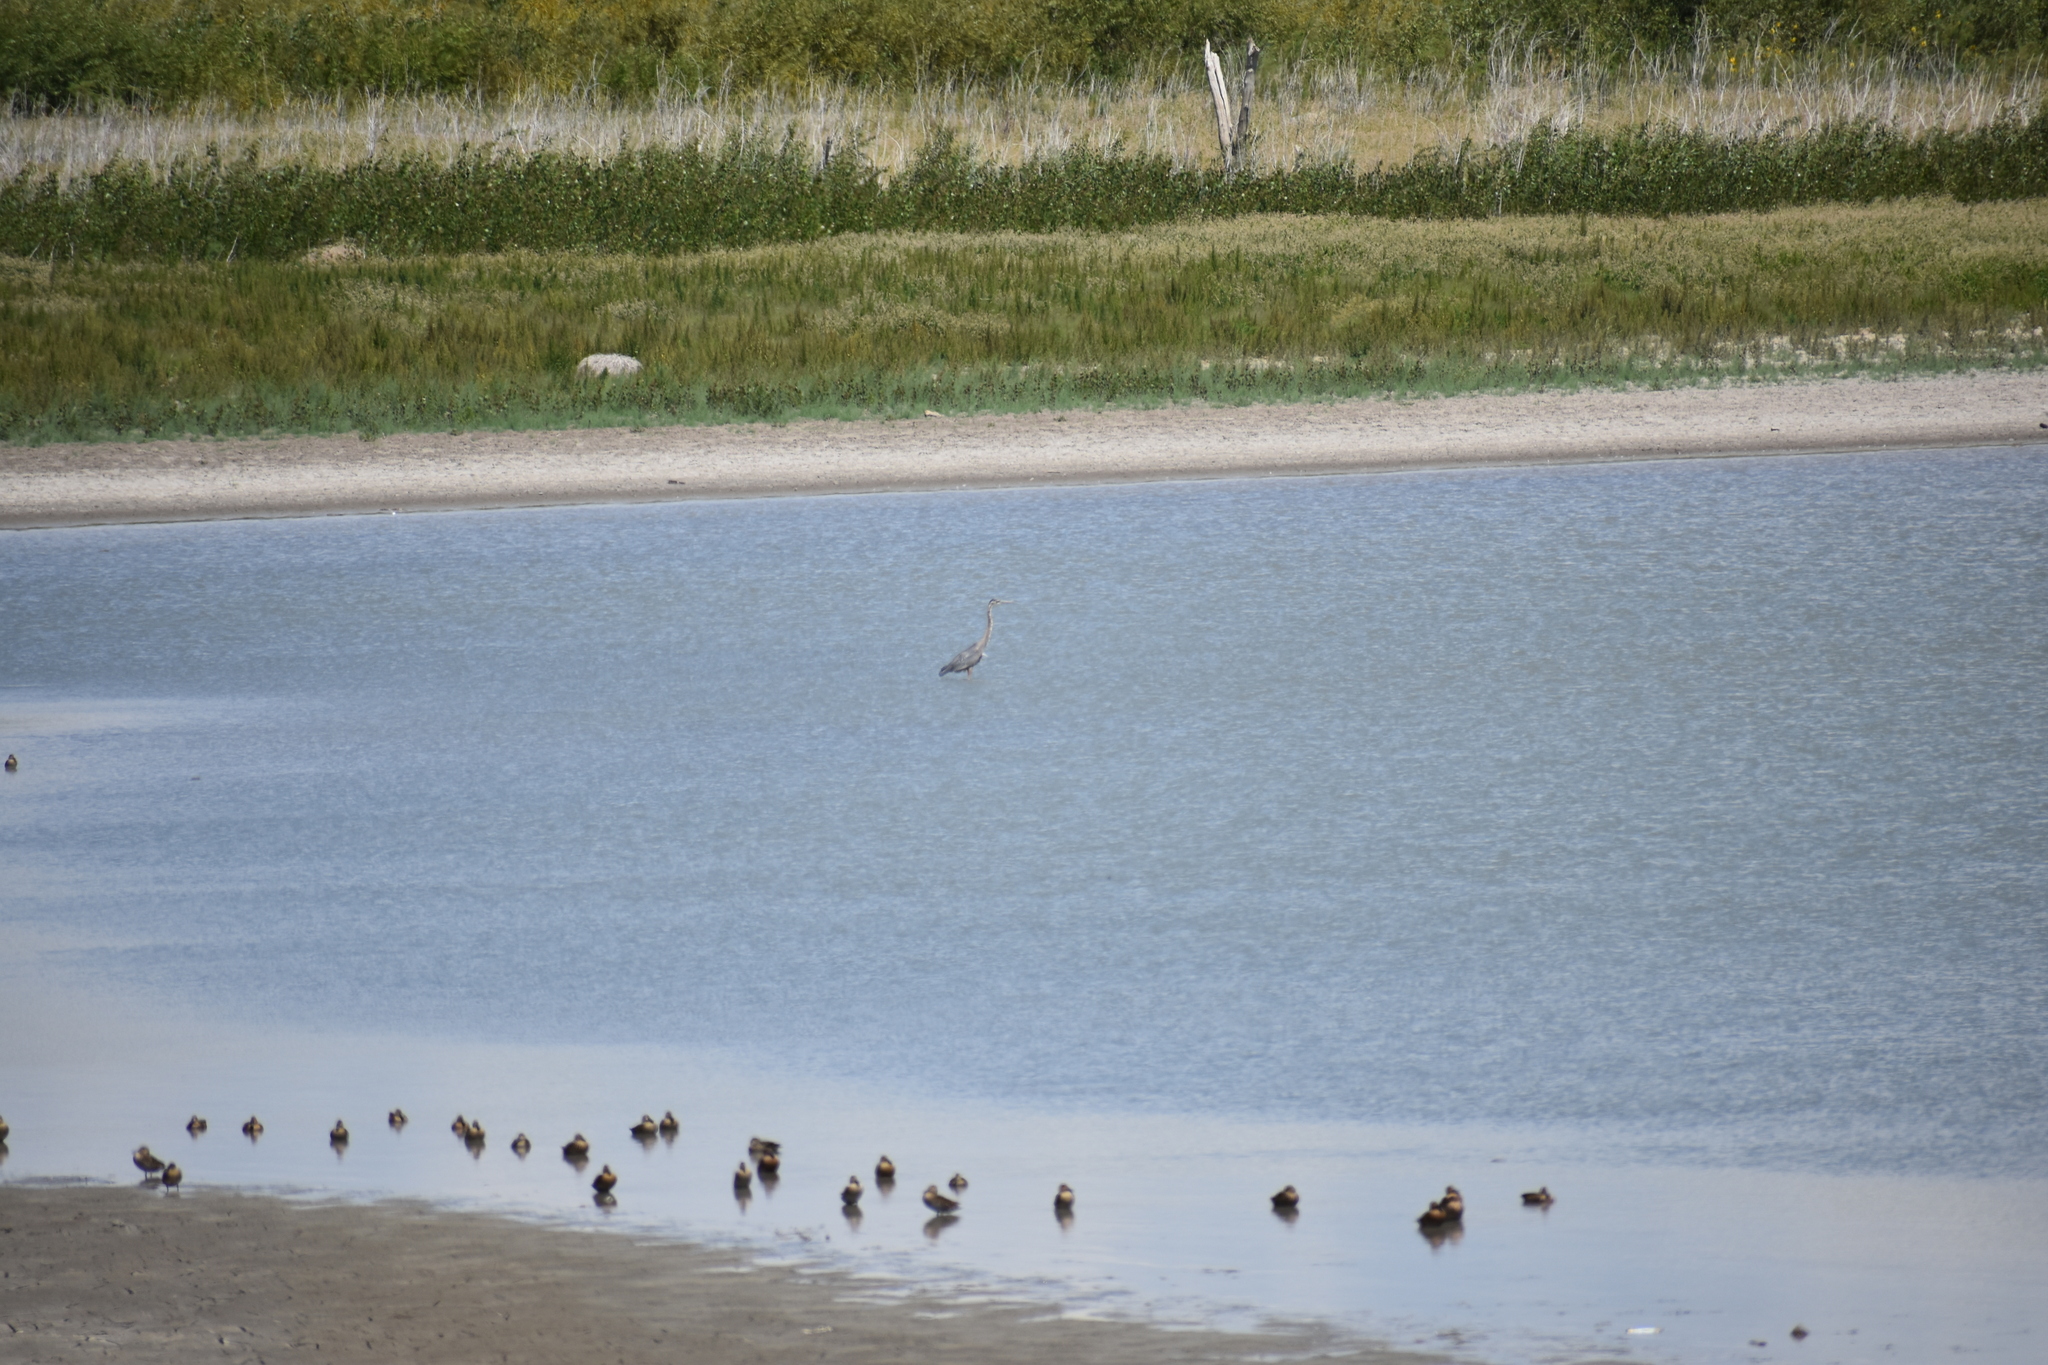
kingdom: Animalia
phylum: Chordata
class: Aves
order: Pelecaniformes
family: Ardeidae
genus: Ardea
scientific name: Ardea herodias
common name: Great blue heron
